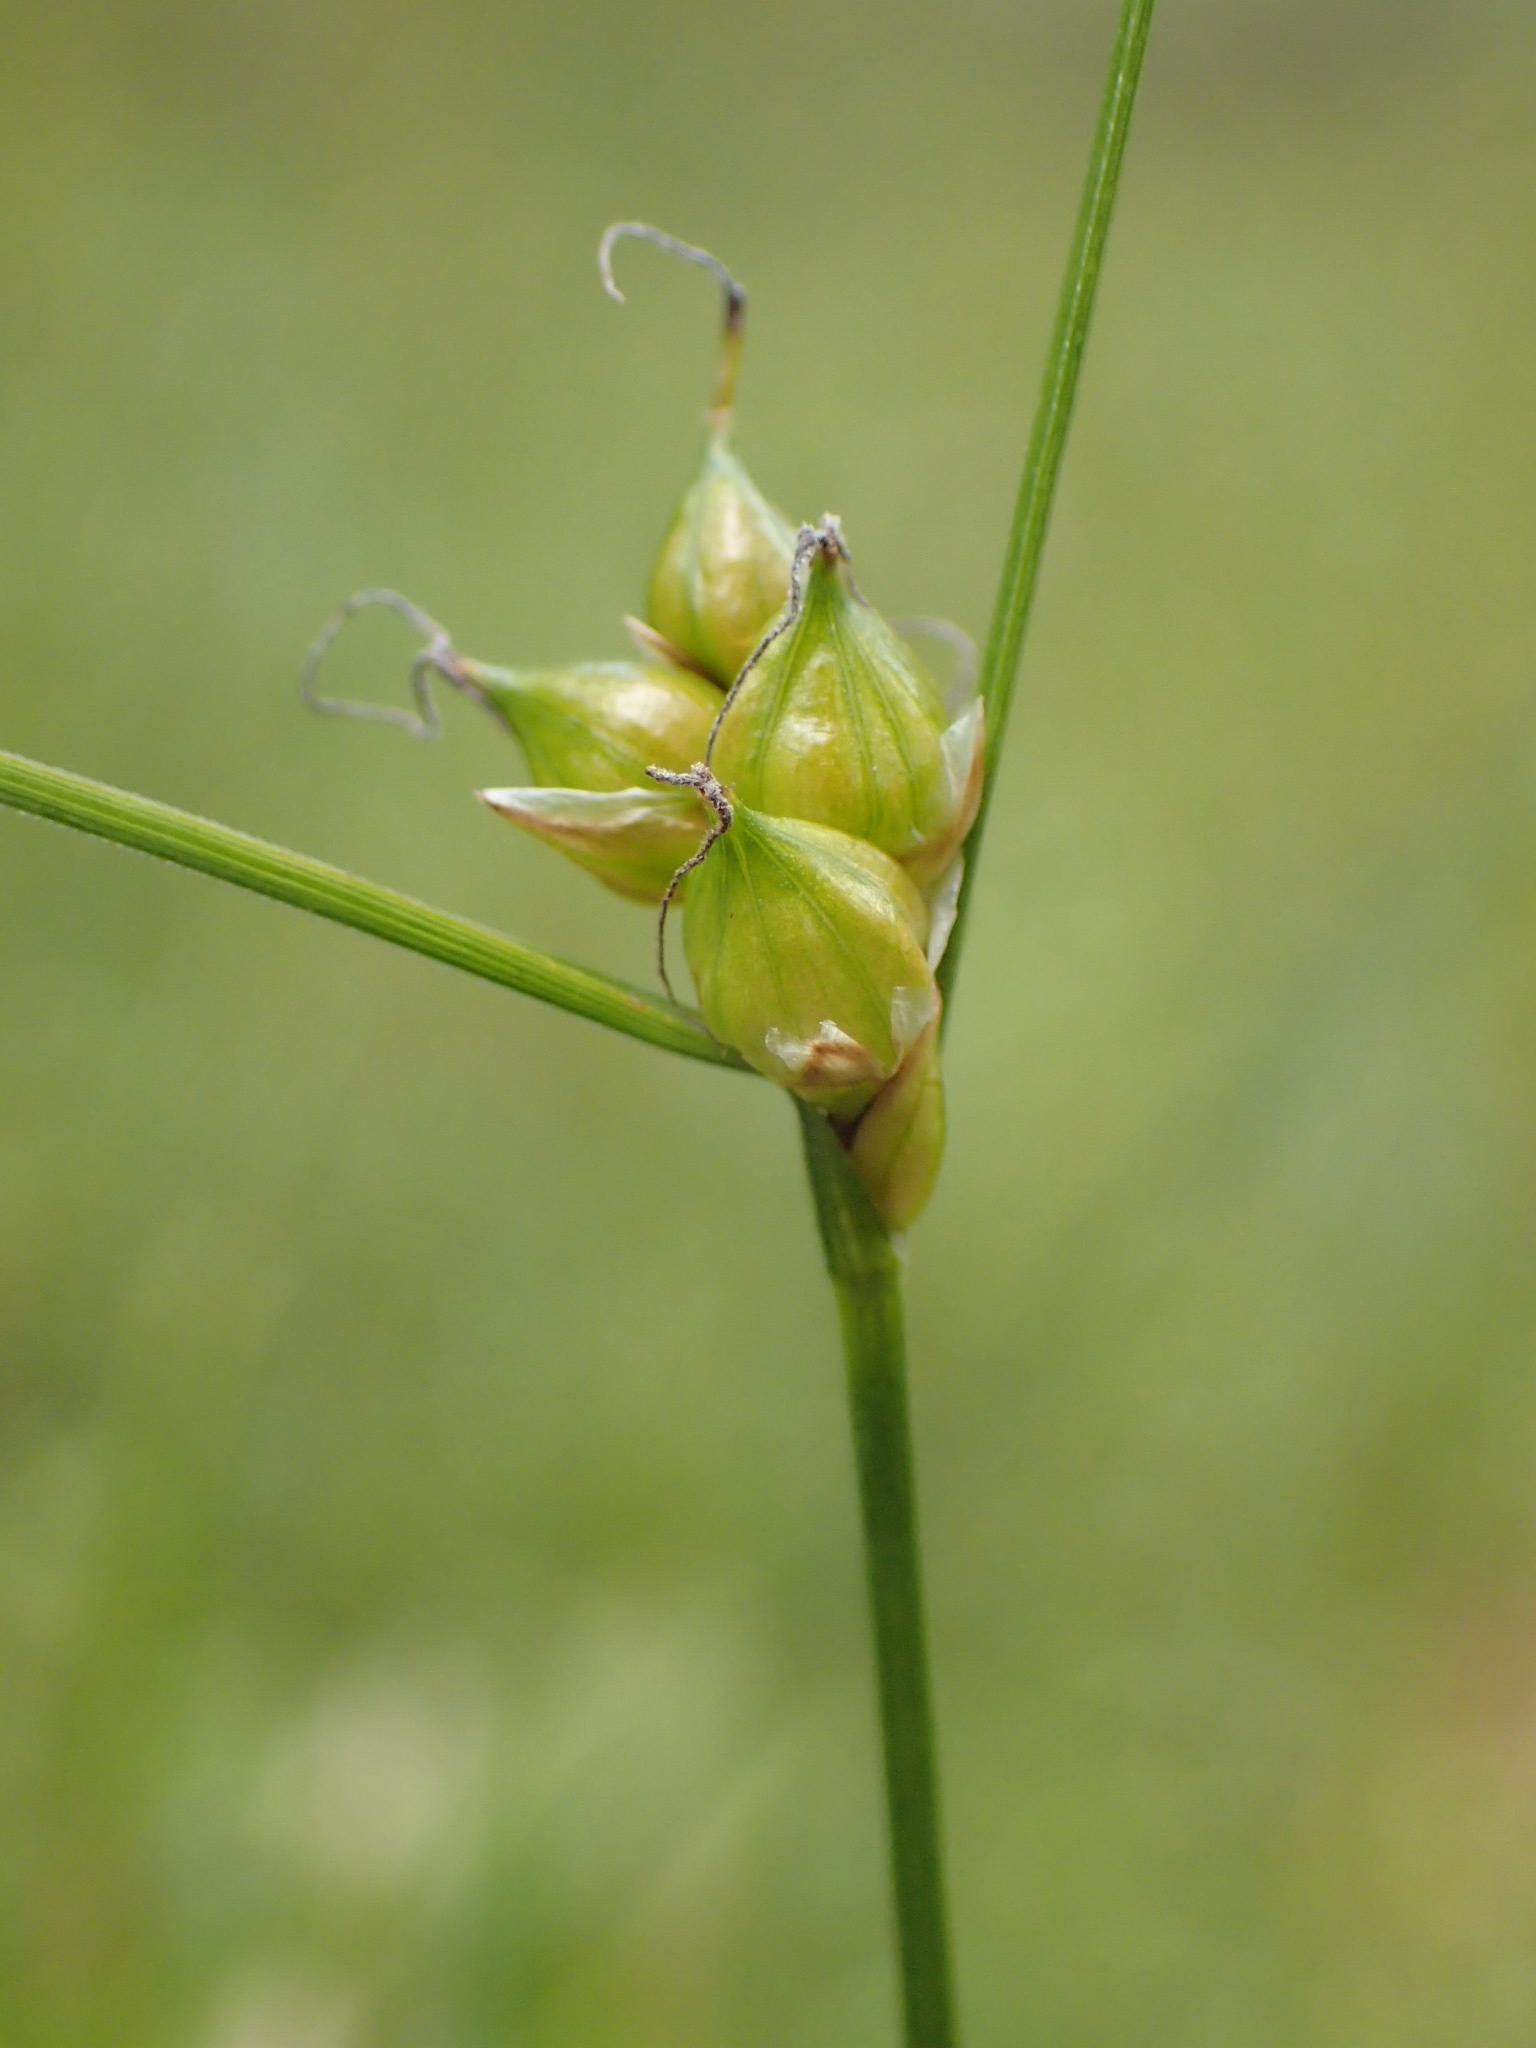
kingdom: Plantae
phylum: Tracheophyta
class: Liliopsida
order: Poales
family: Cyperaceae
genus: Carex
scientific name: Carex oligosperma
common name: Few-seed sedge
